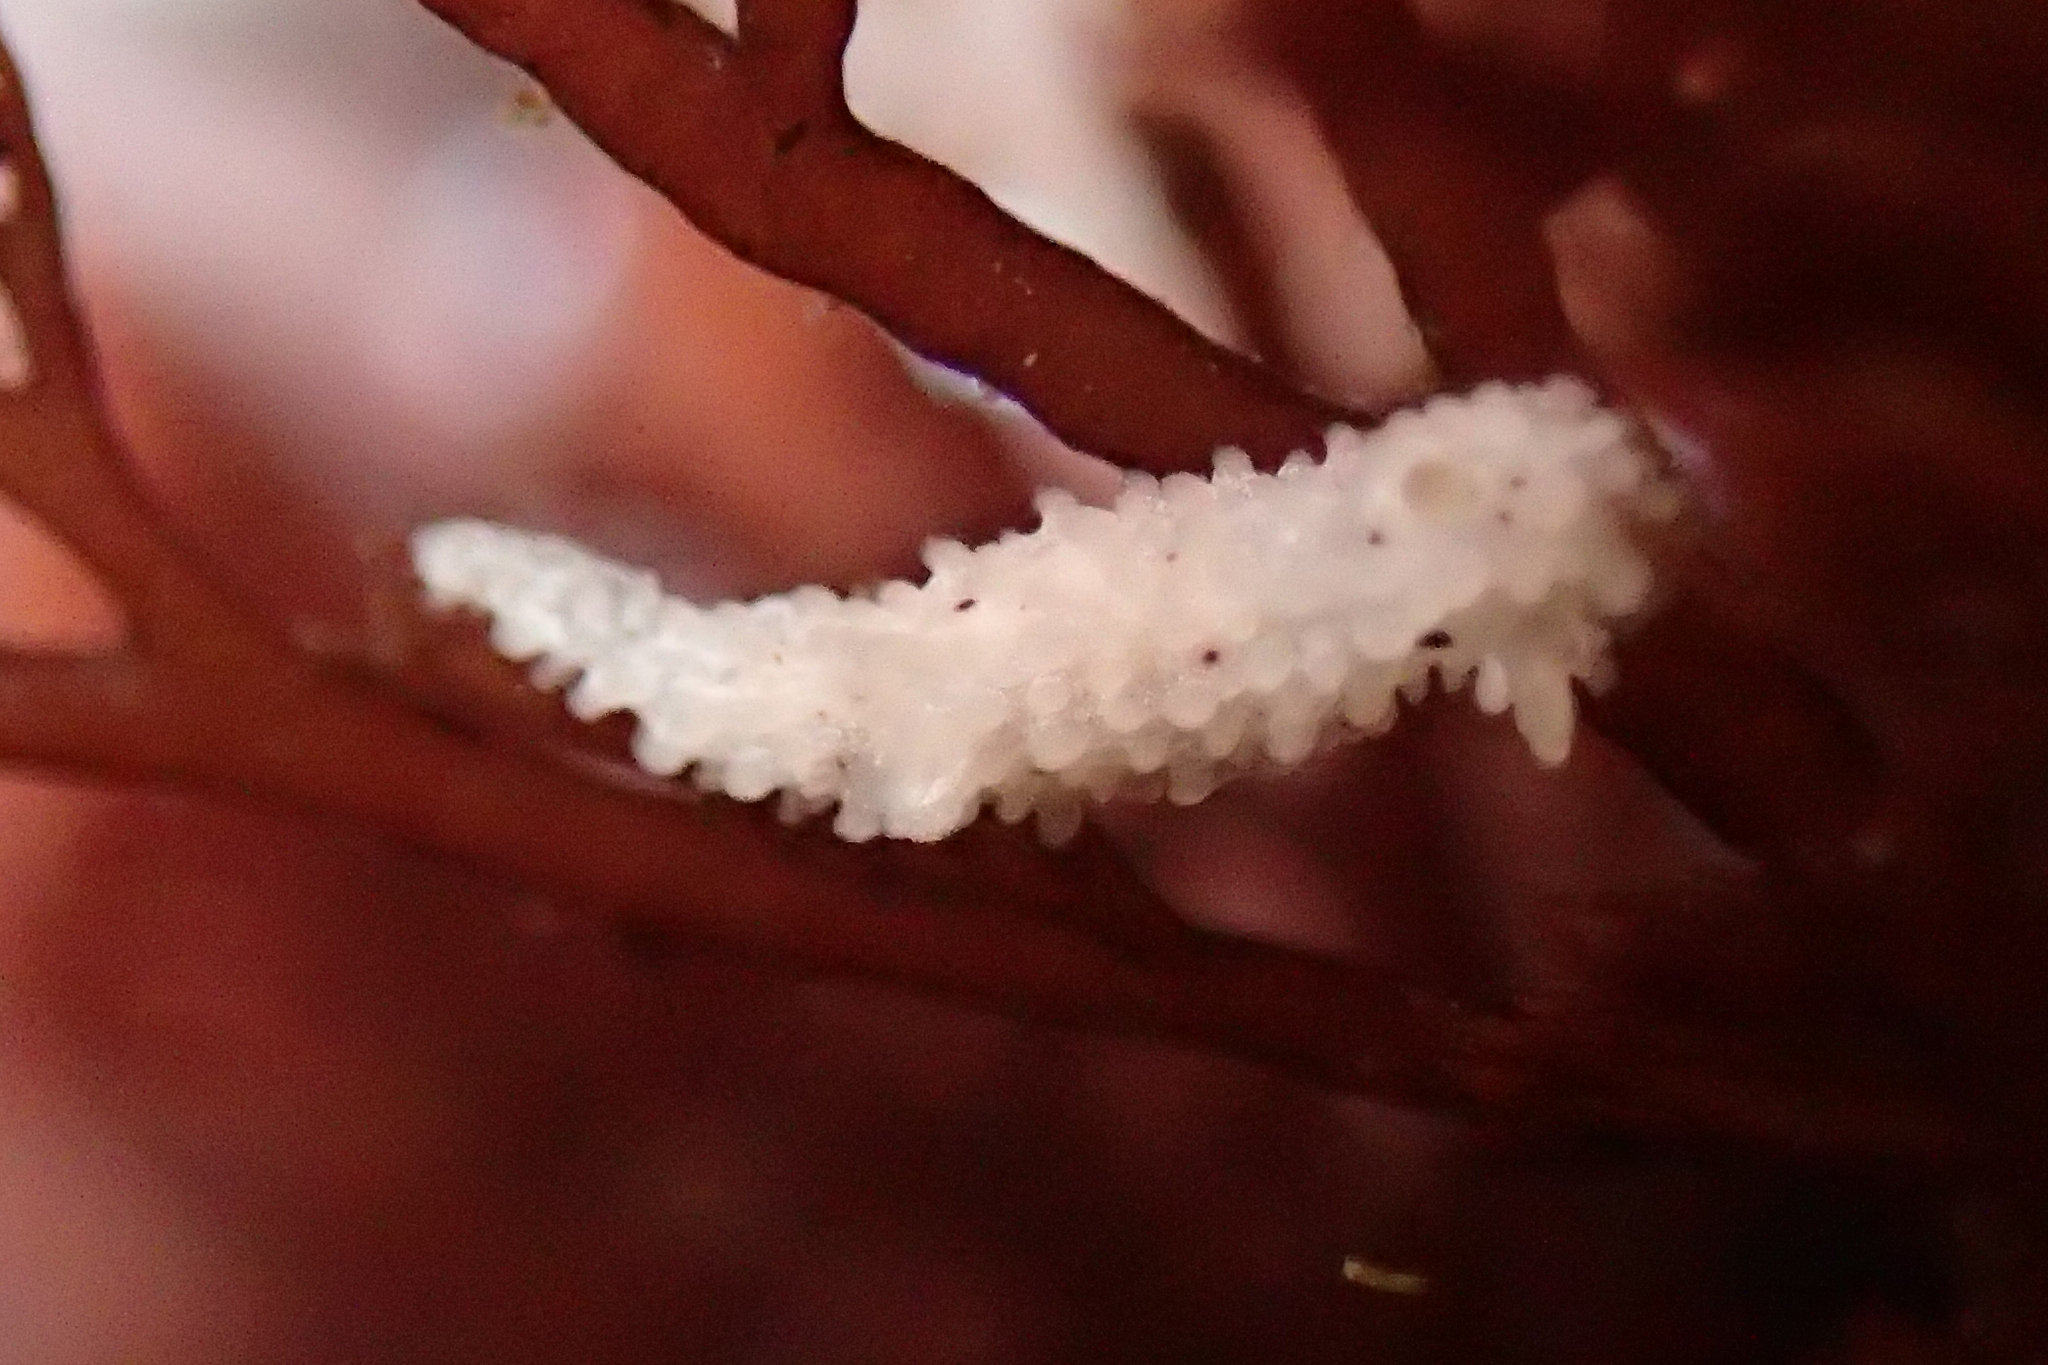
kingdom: Animalia
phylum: Mollusca
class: Gastropoda
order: Nudibranchia
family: Aegiridae
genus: Aegires
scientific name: Aegires albopunctatus
